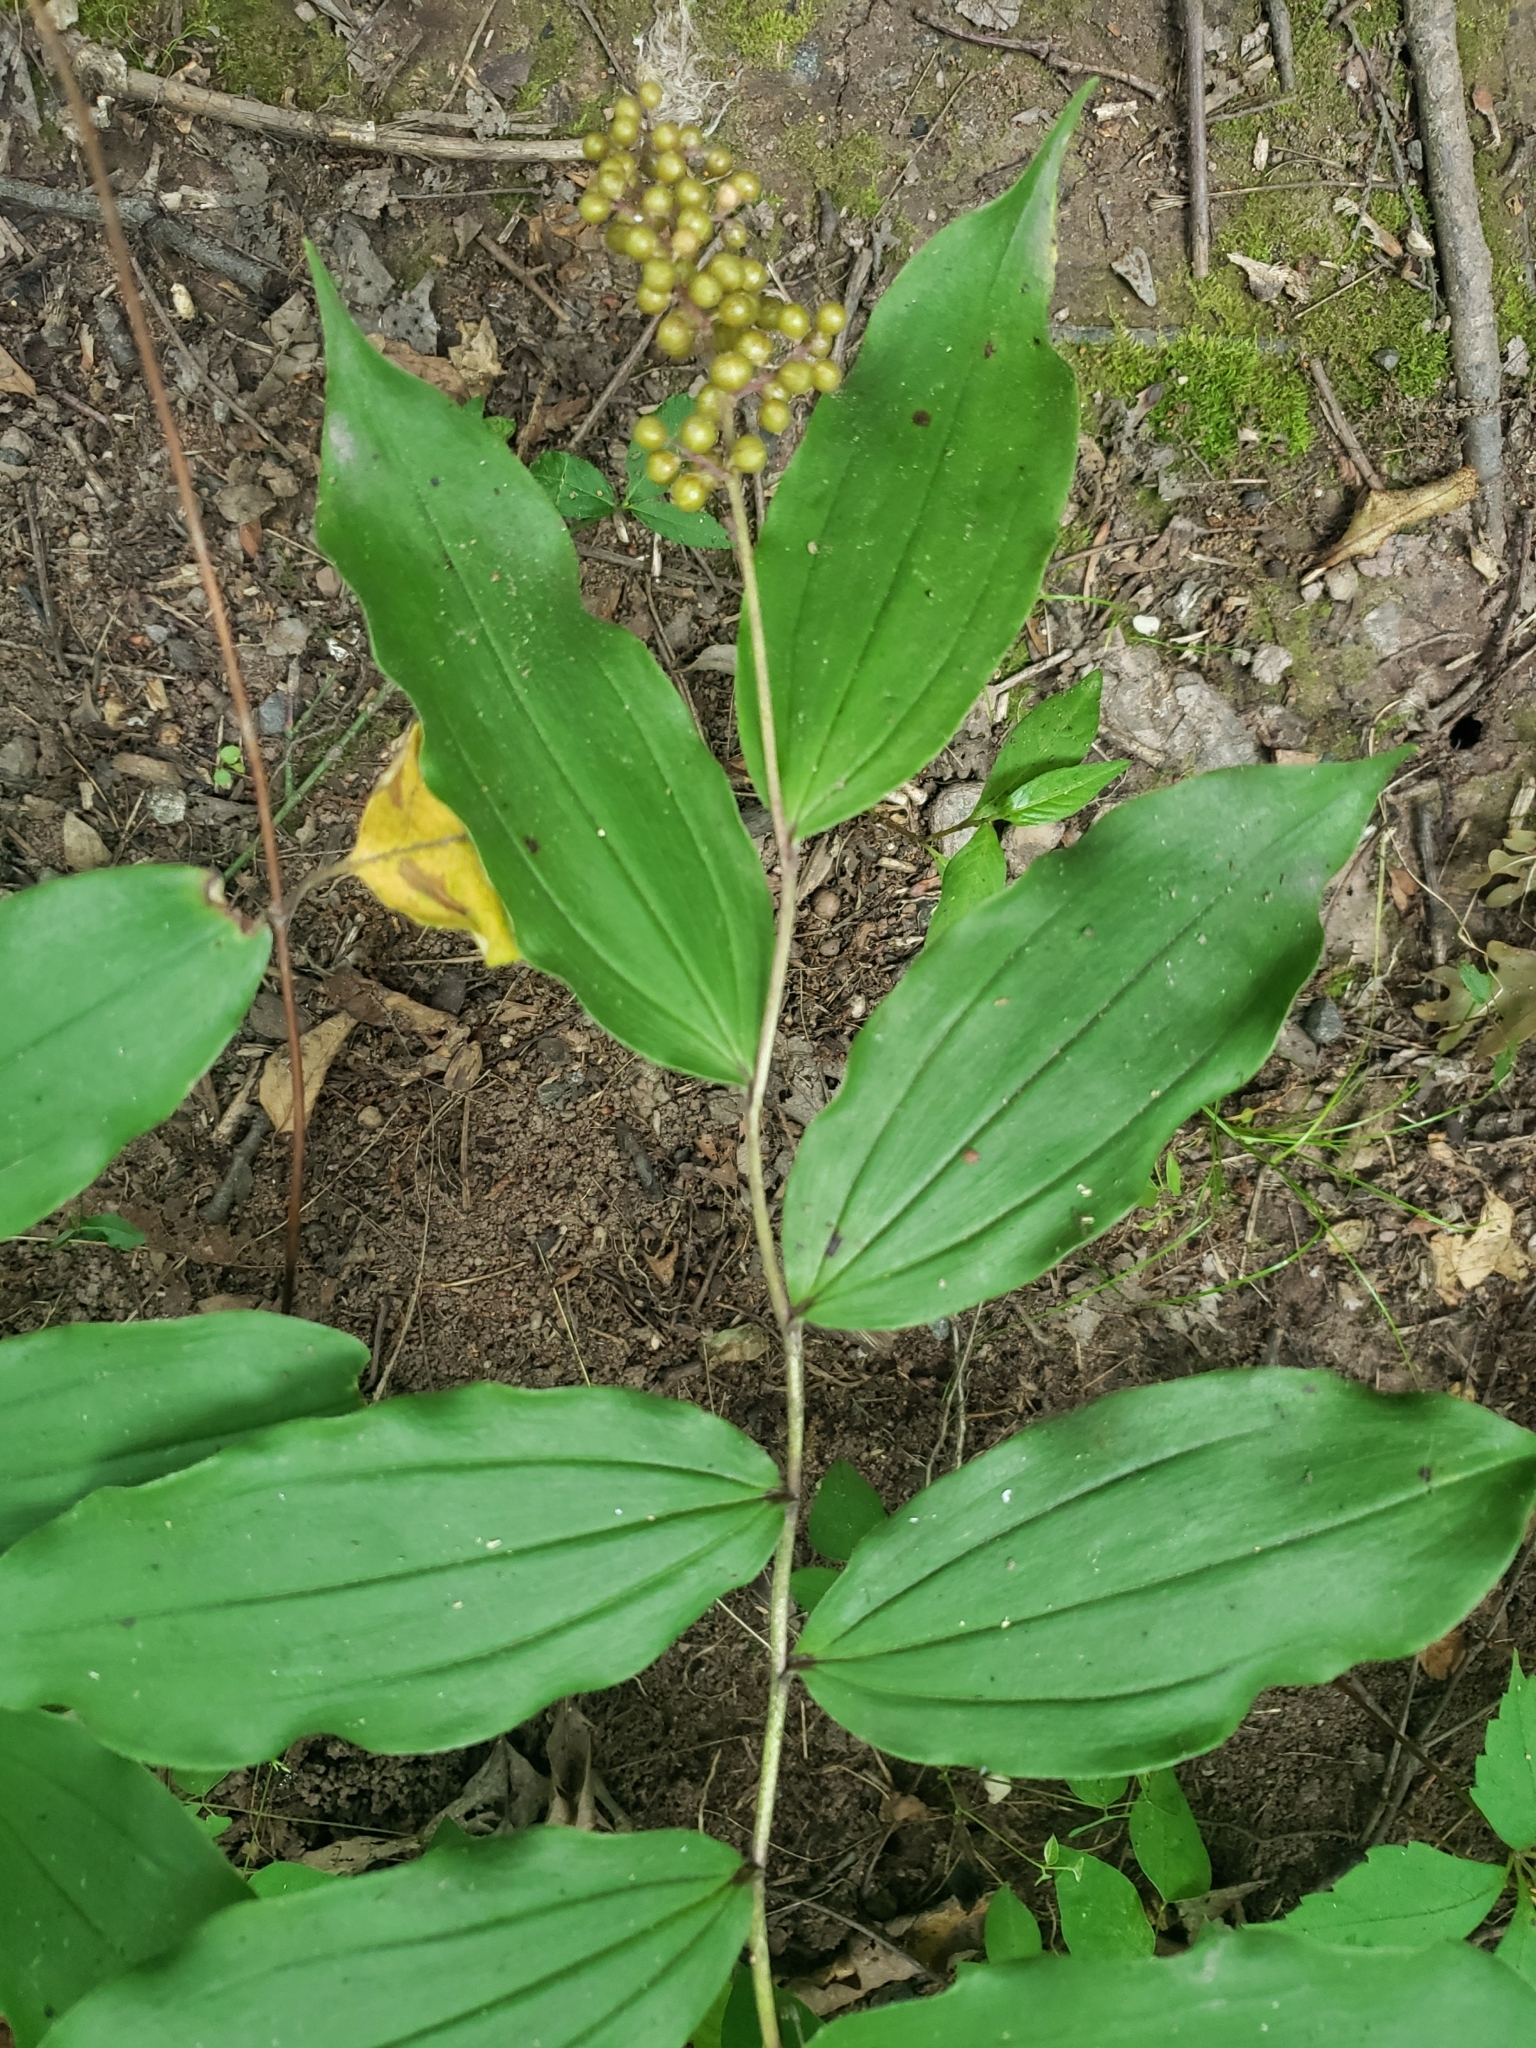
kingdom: Plantae
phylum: Tracheophyta
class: Liliopsida
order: Asparagales
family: Asparagaceae
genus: Maianthemum
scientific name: Maianthemum racemosum
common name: False spikenard
